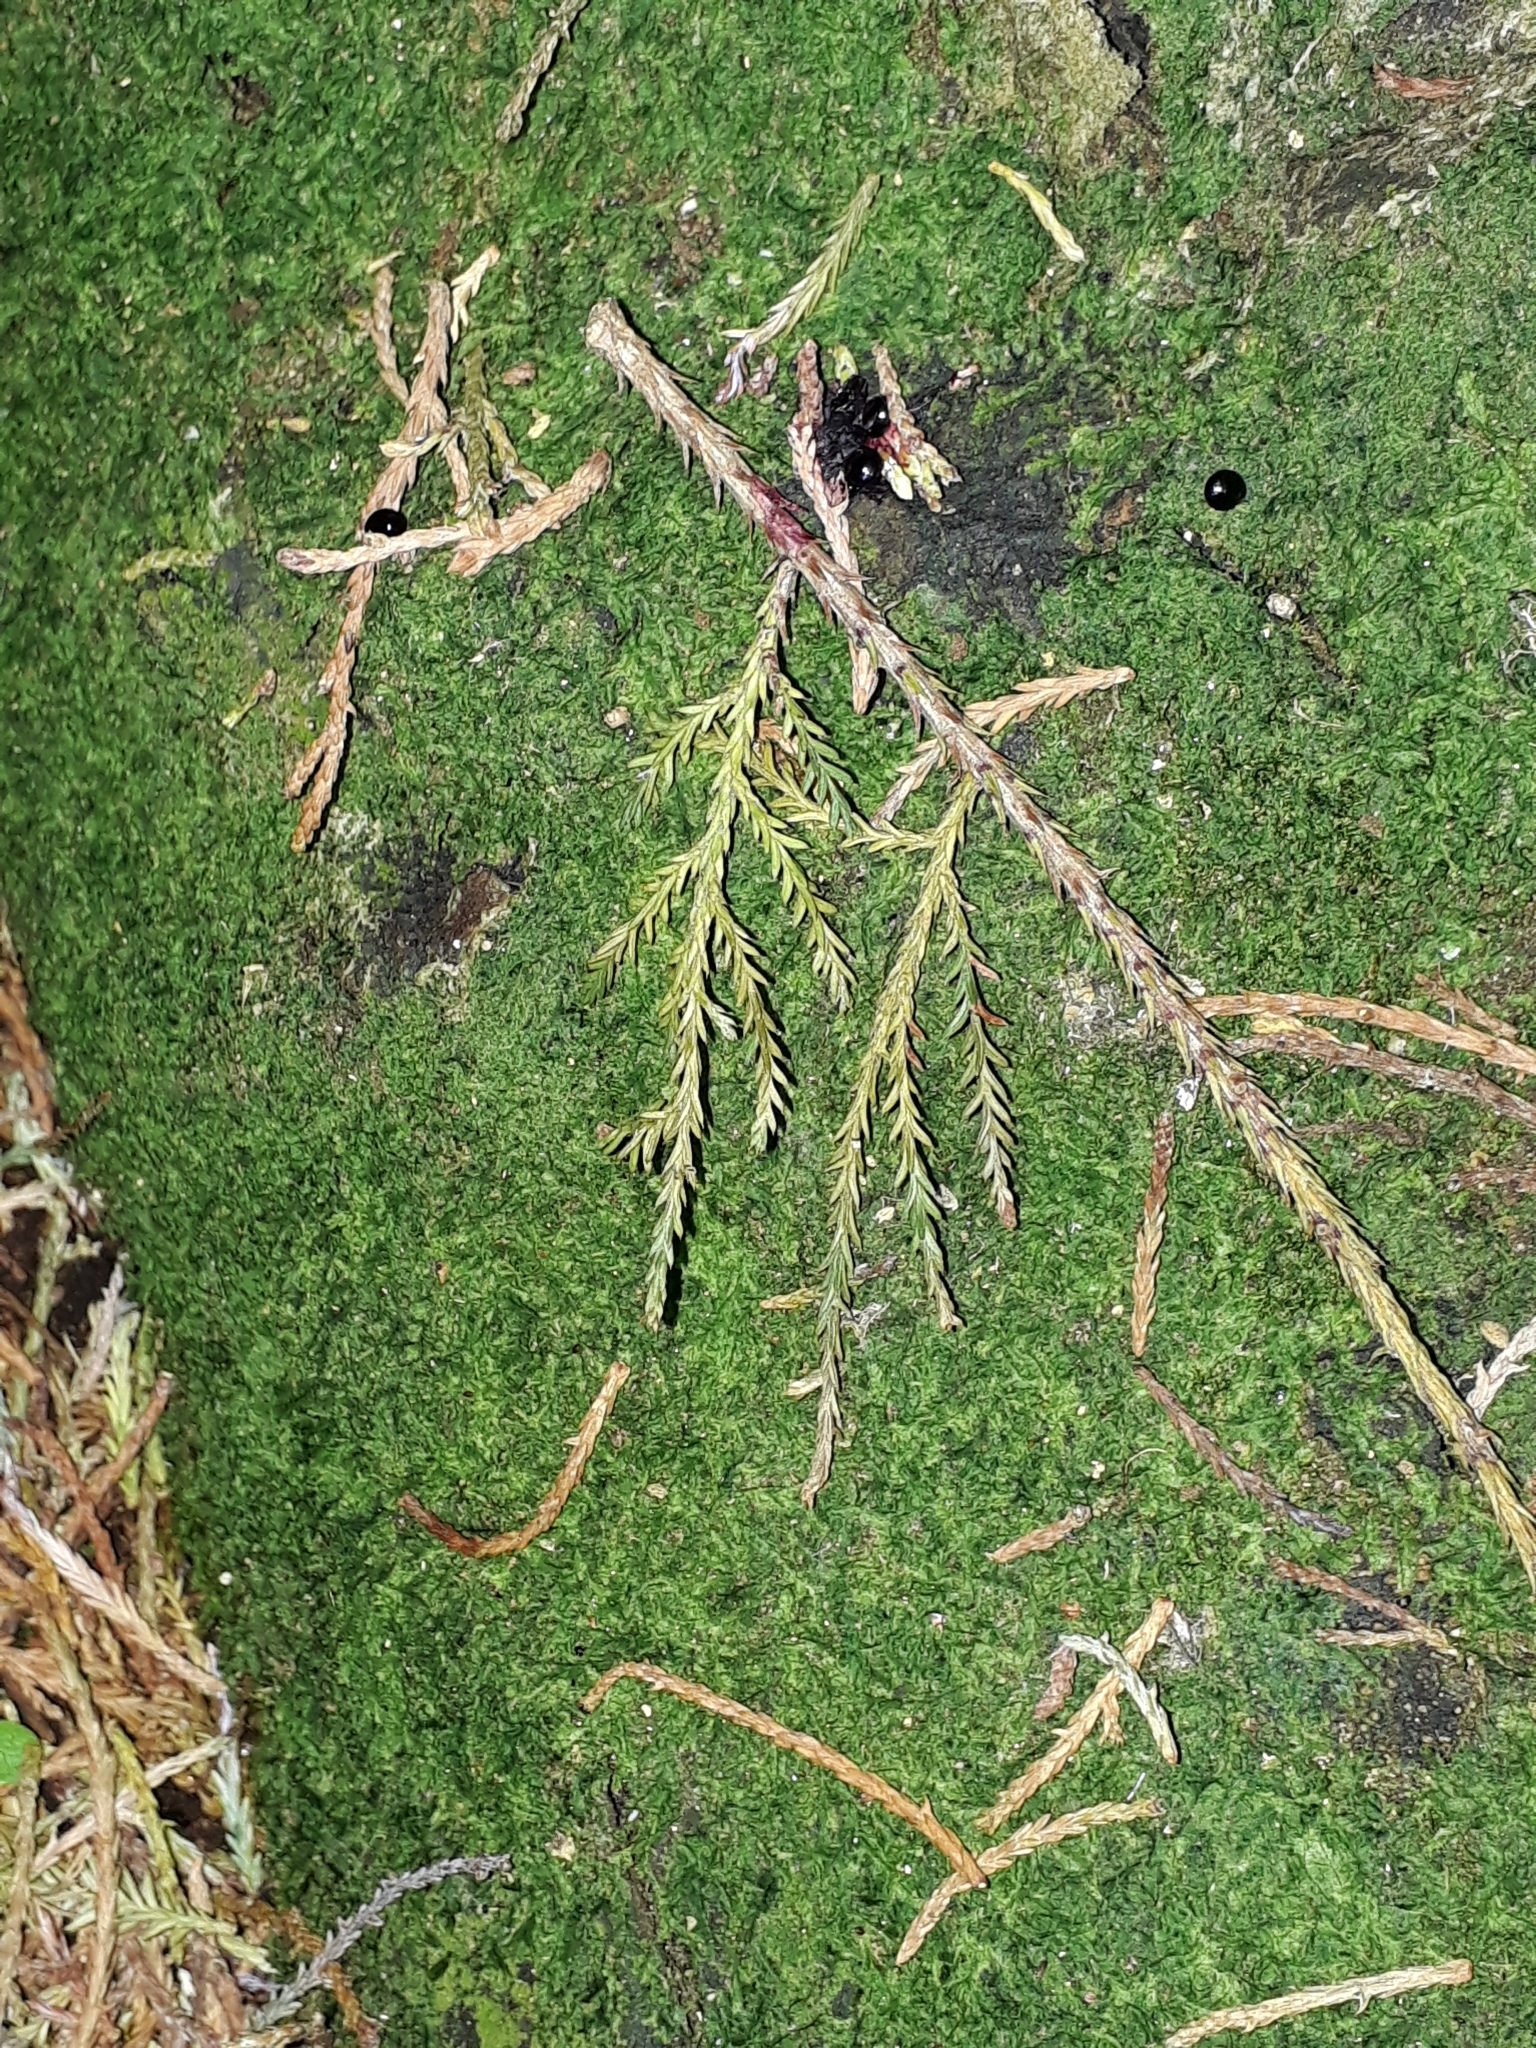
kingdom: Plantae
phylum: Tracheophyta
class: Pinopsida
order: Pinales
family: Podocarpaceae
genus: Dacrycarpus
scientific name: Dacrycarpus dacrydioides
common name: White pine
